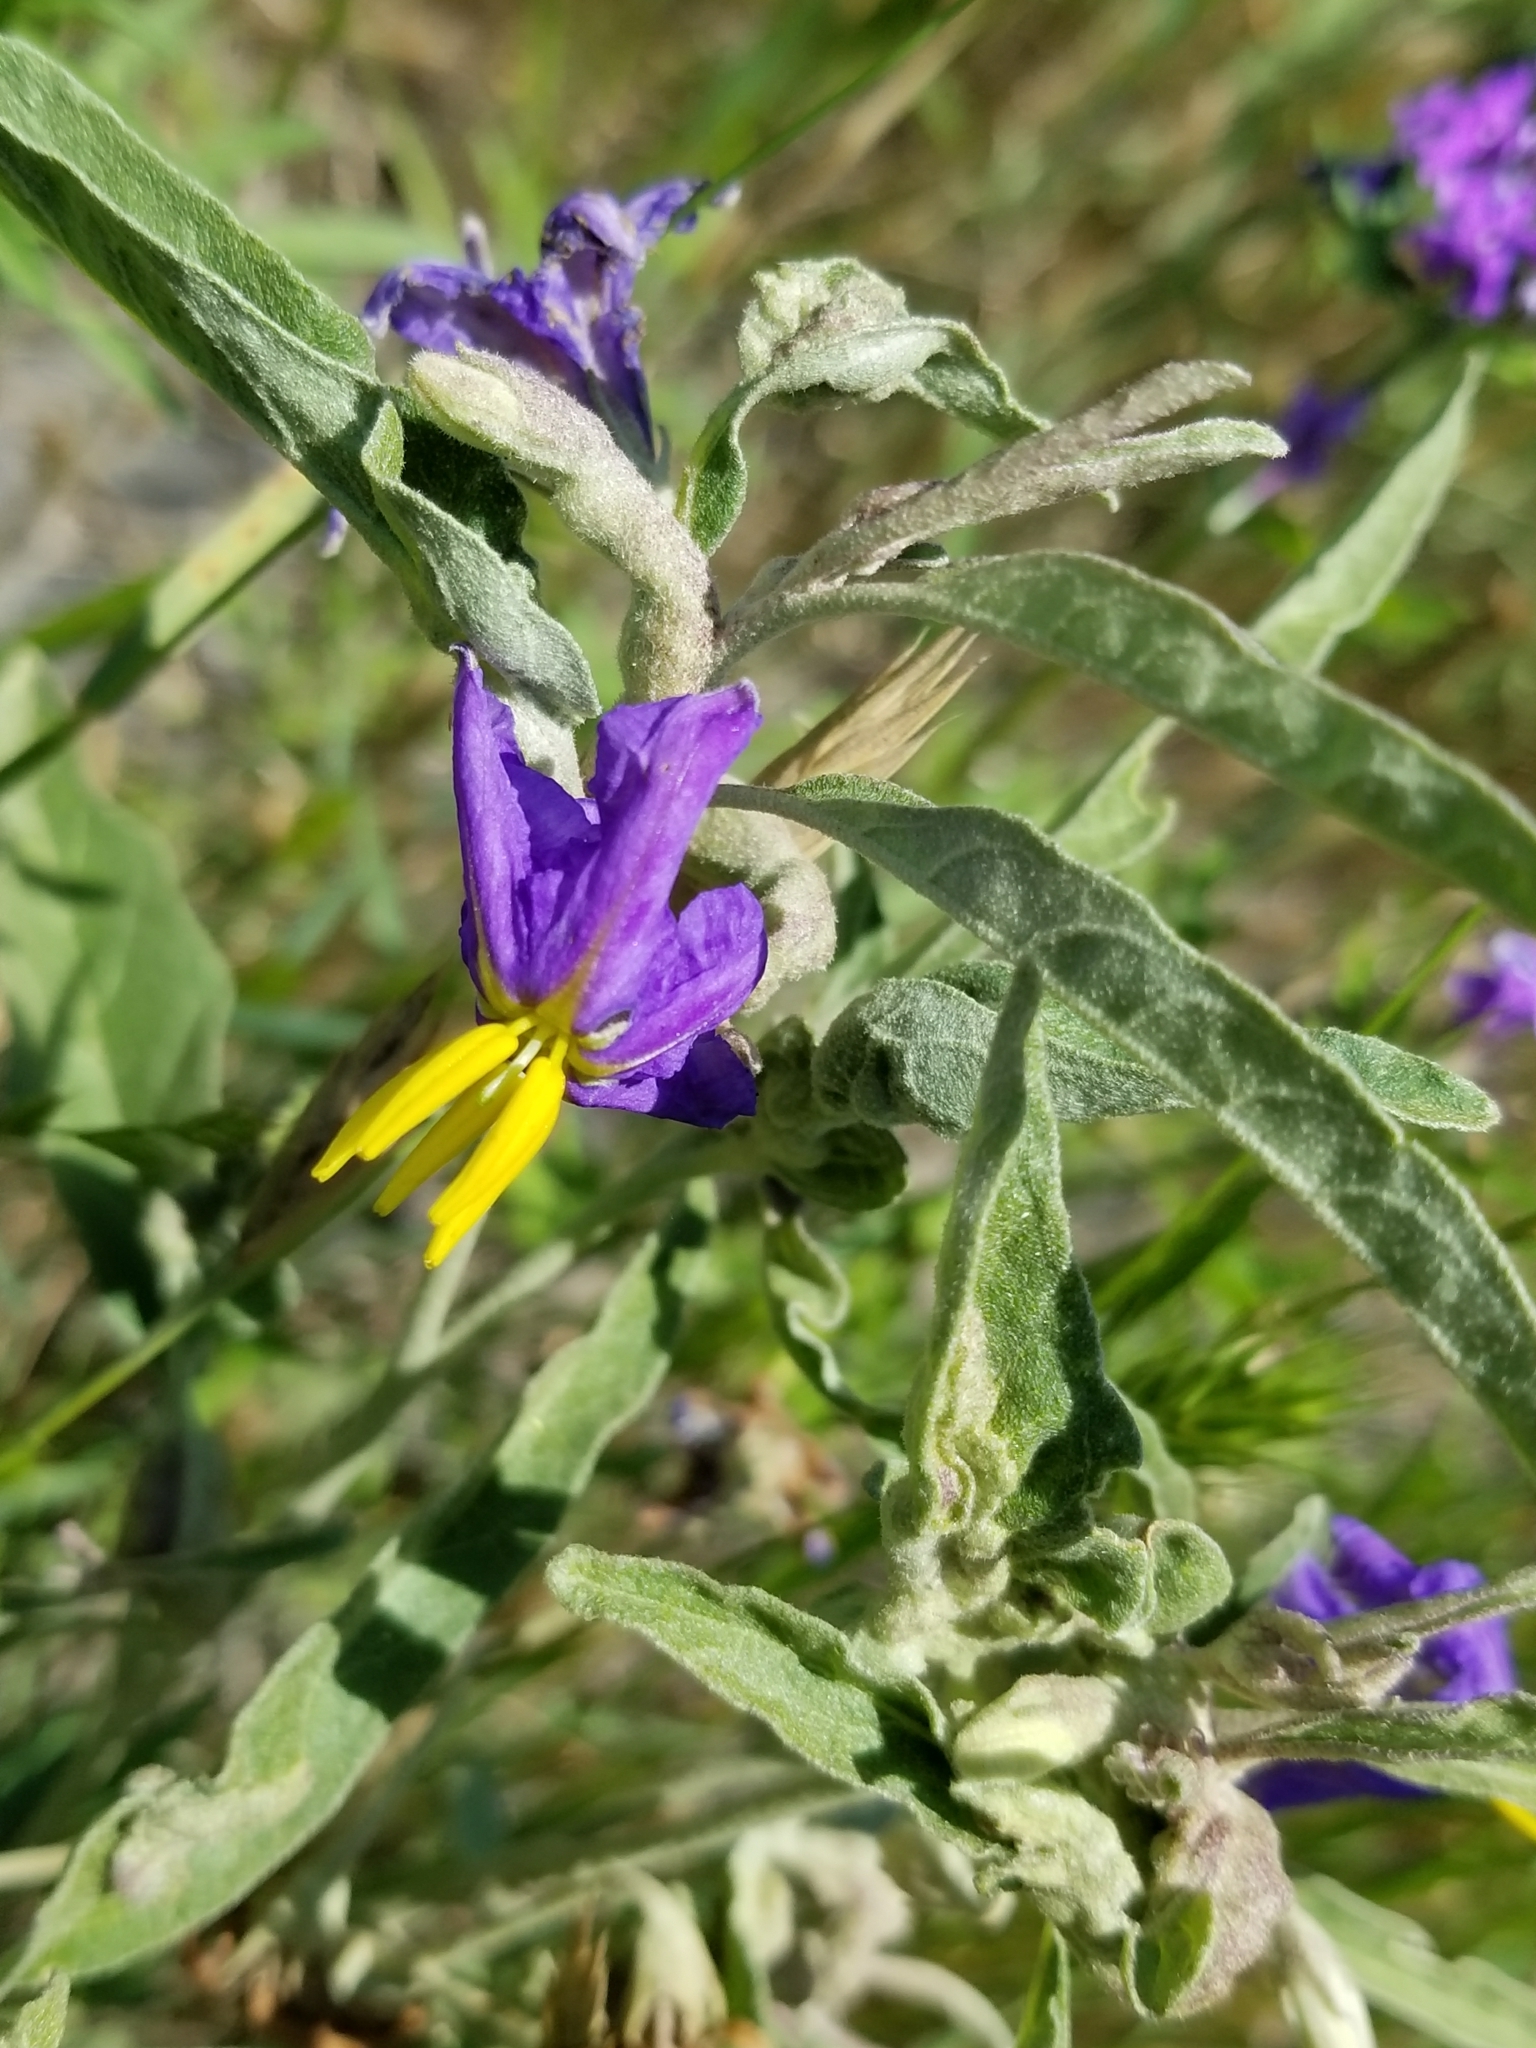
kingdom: Plantae
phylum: Tracheophyta
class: Magnoliopsida
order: Solanales
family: Solanaceae
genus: Solanum
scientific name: Solanum elaeagnifolium
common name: Silverleaf nightshade
